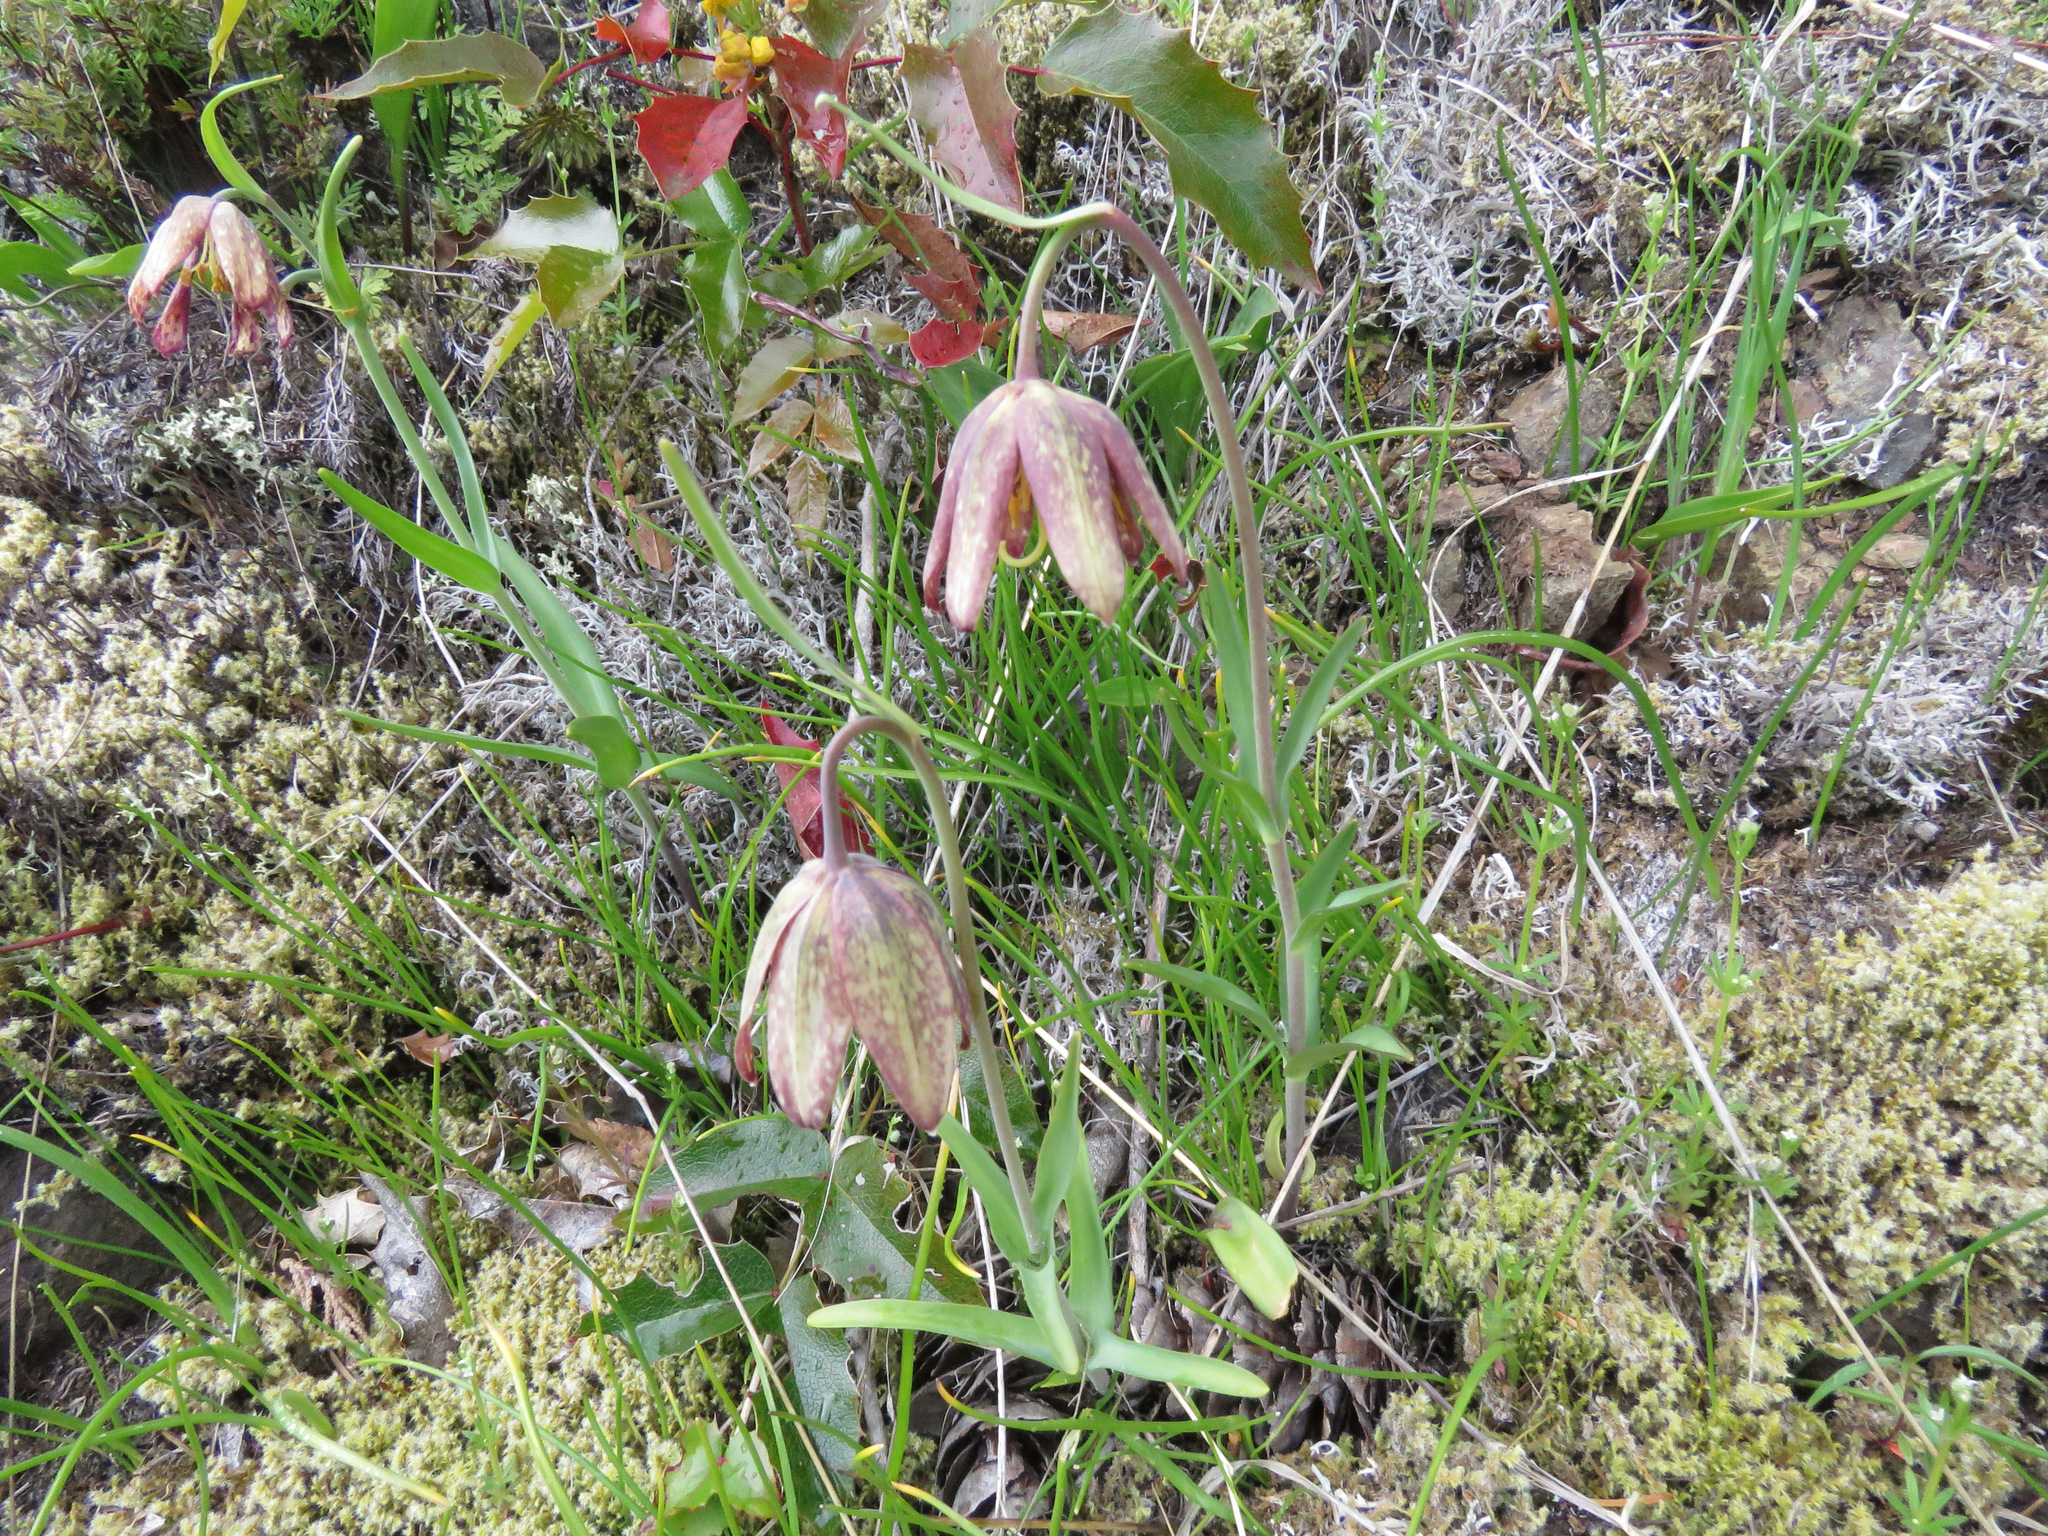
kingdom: Plantae
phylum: Tracheophyta
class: Liliopsida
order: Liliales
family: Liliaceae
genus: Fritillaria
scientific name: Fritillaria affinis
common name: Ojai fritillary
